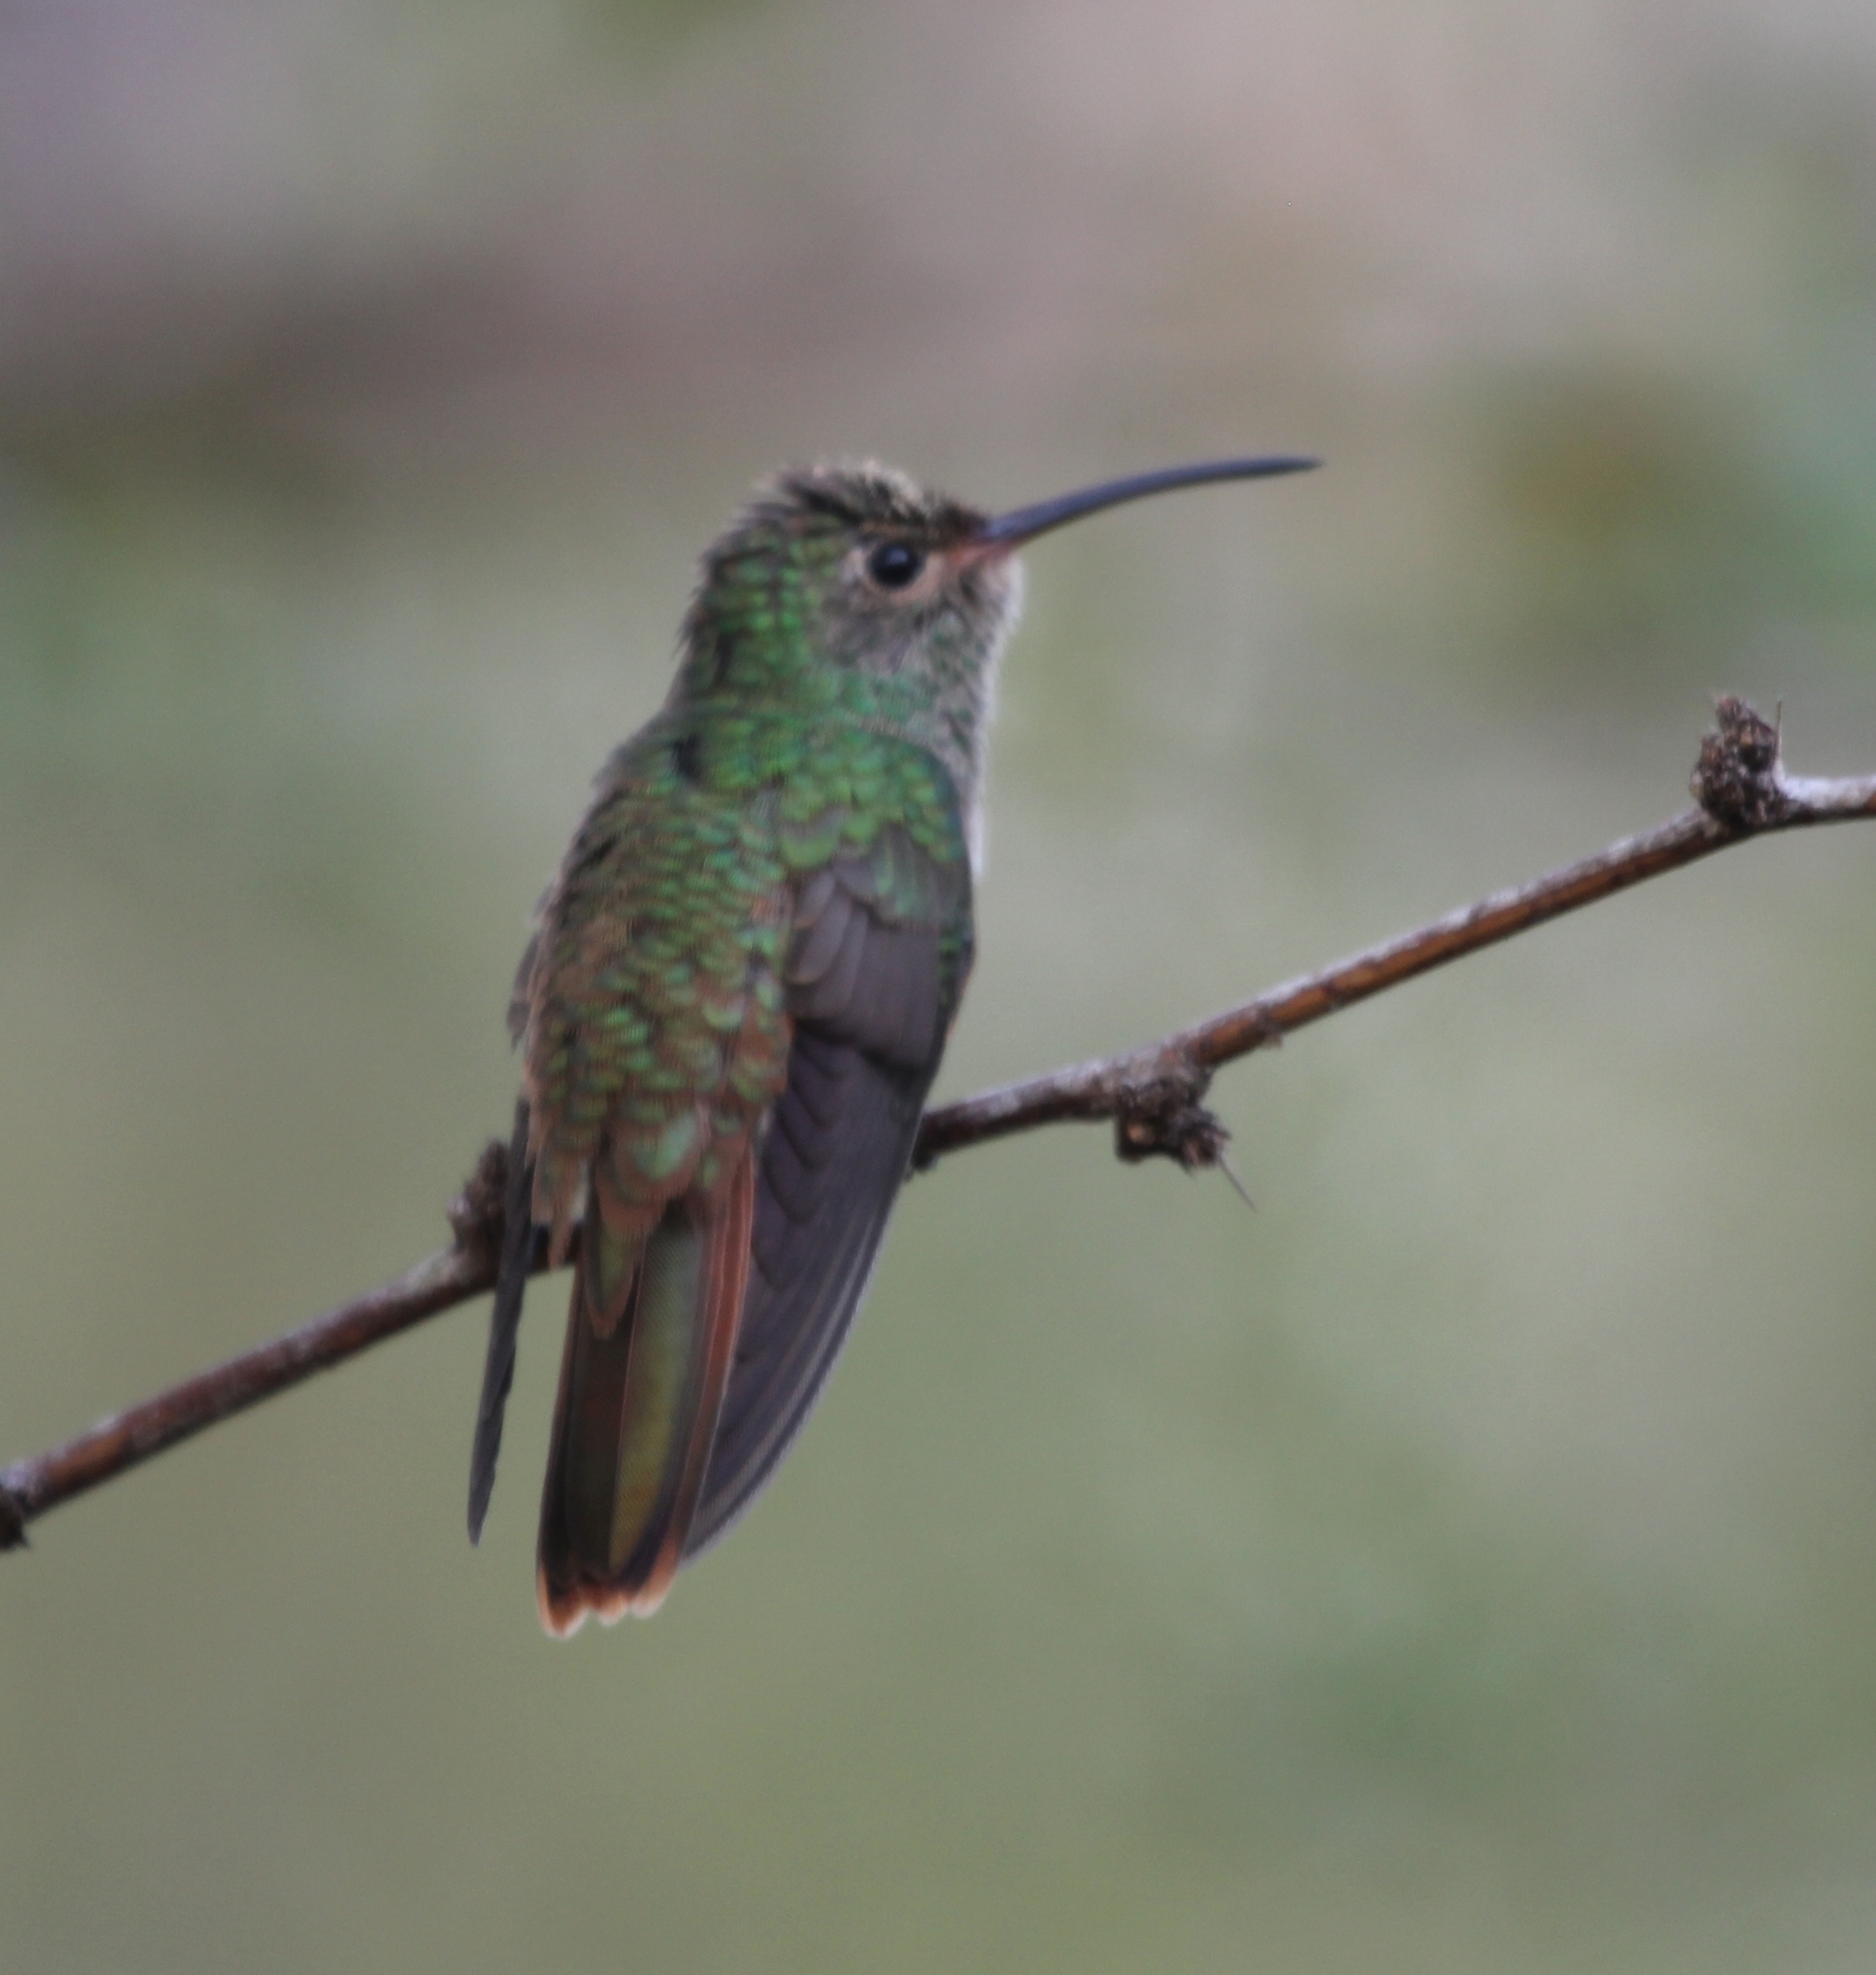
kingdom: Animalia
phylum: Chordata
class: Aves
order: Apodiformes
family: Trochilidae
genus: Amazilia
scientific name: Amazilia yucatanensis
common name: Buff-bellied hummingbird
